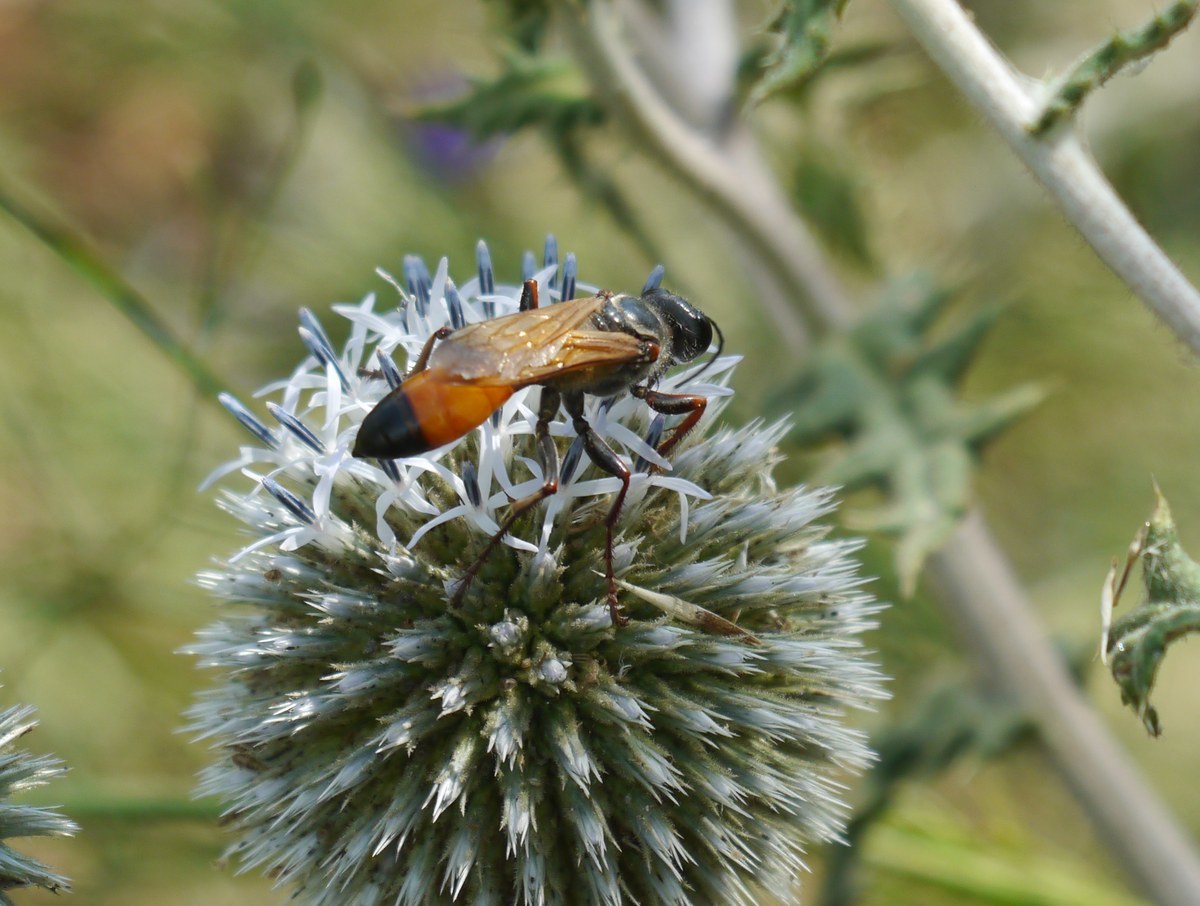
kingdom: Animalia
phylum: Arthropoda
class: Insecta
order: Hymenoptera
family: Sphecidae
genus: Sphex
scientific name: Sphex flavipennis
